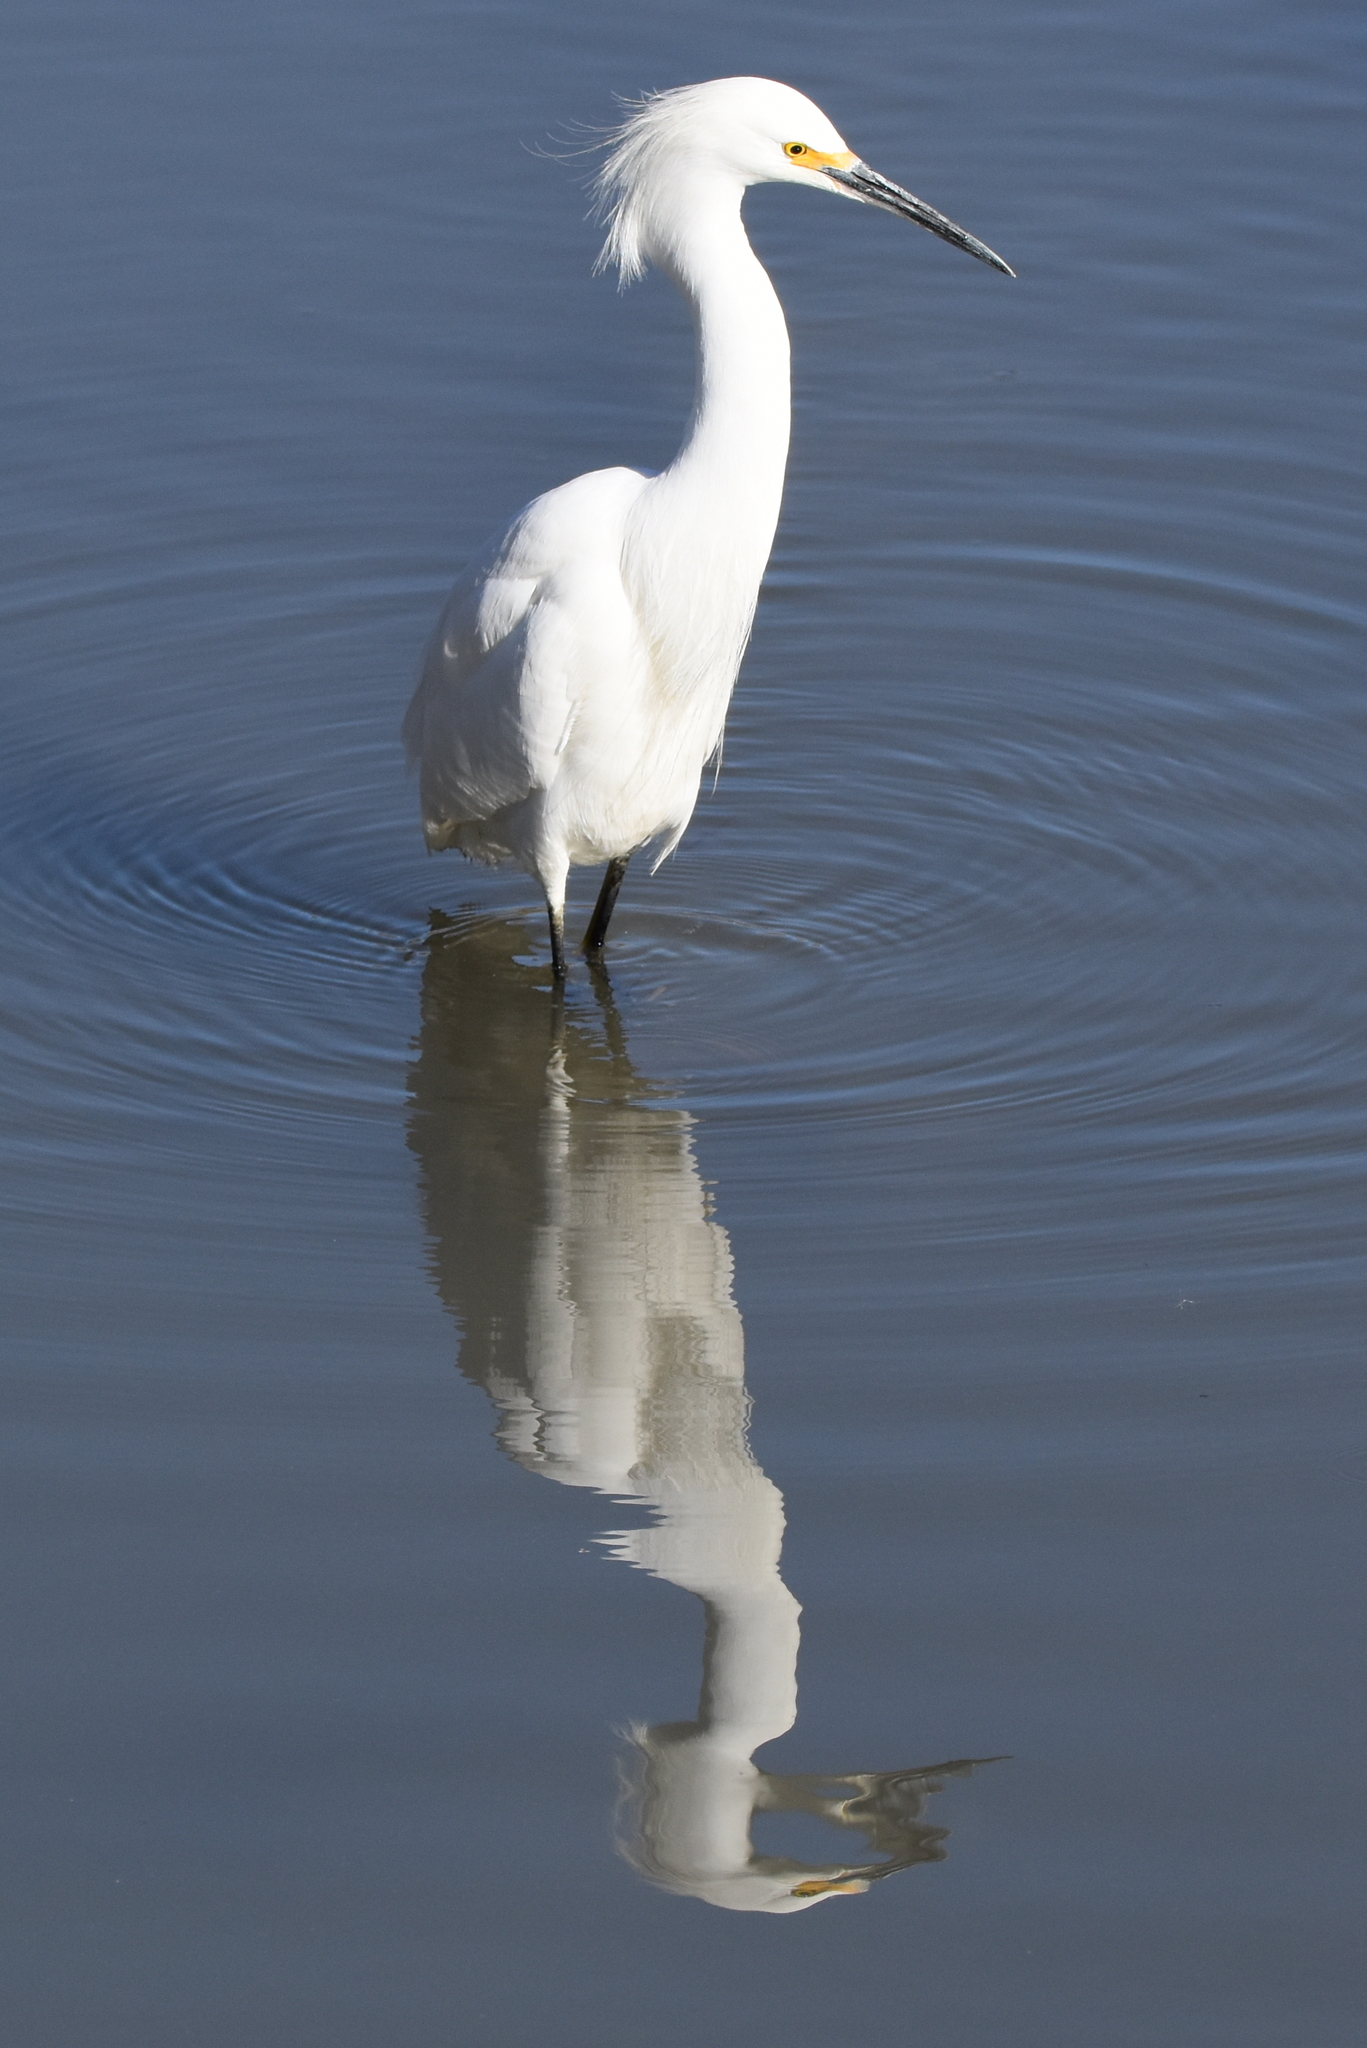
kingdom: Animalia
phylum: Chordata
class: Aves
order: Pelecaniformes
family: Ardeidae
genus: Egretta
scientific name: Egretta thula
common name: Snowy egret
